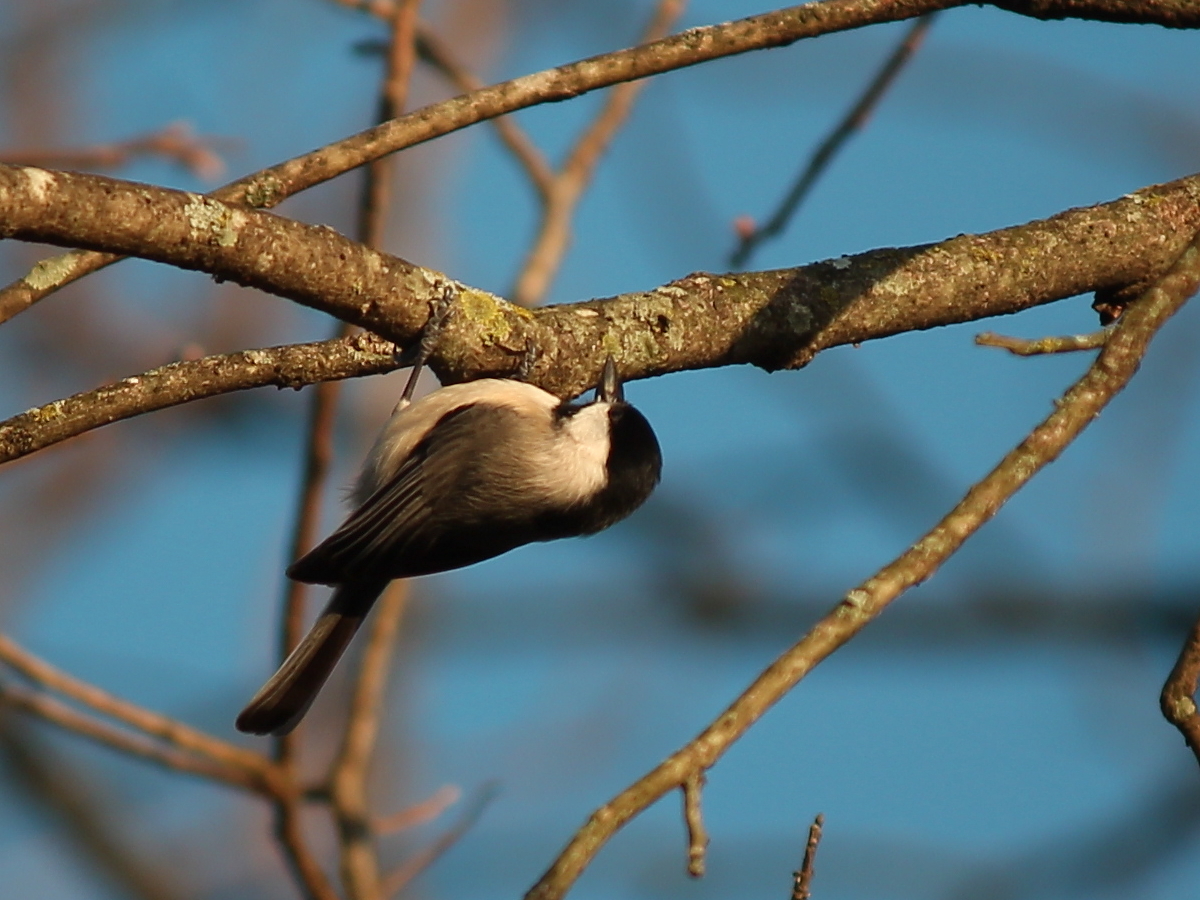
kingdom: Animalia
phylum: Chordata
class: Aves
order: Passeriformes
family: Paridae
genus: Poecile
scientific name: Poecile carolinensis
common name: Carolina chickadee
